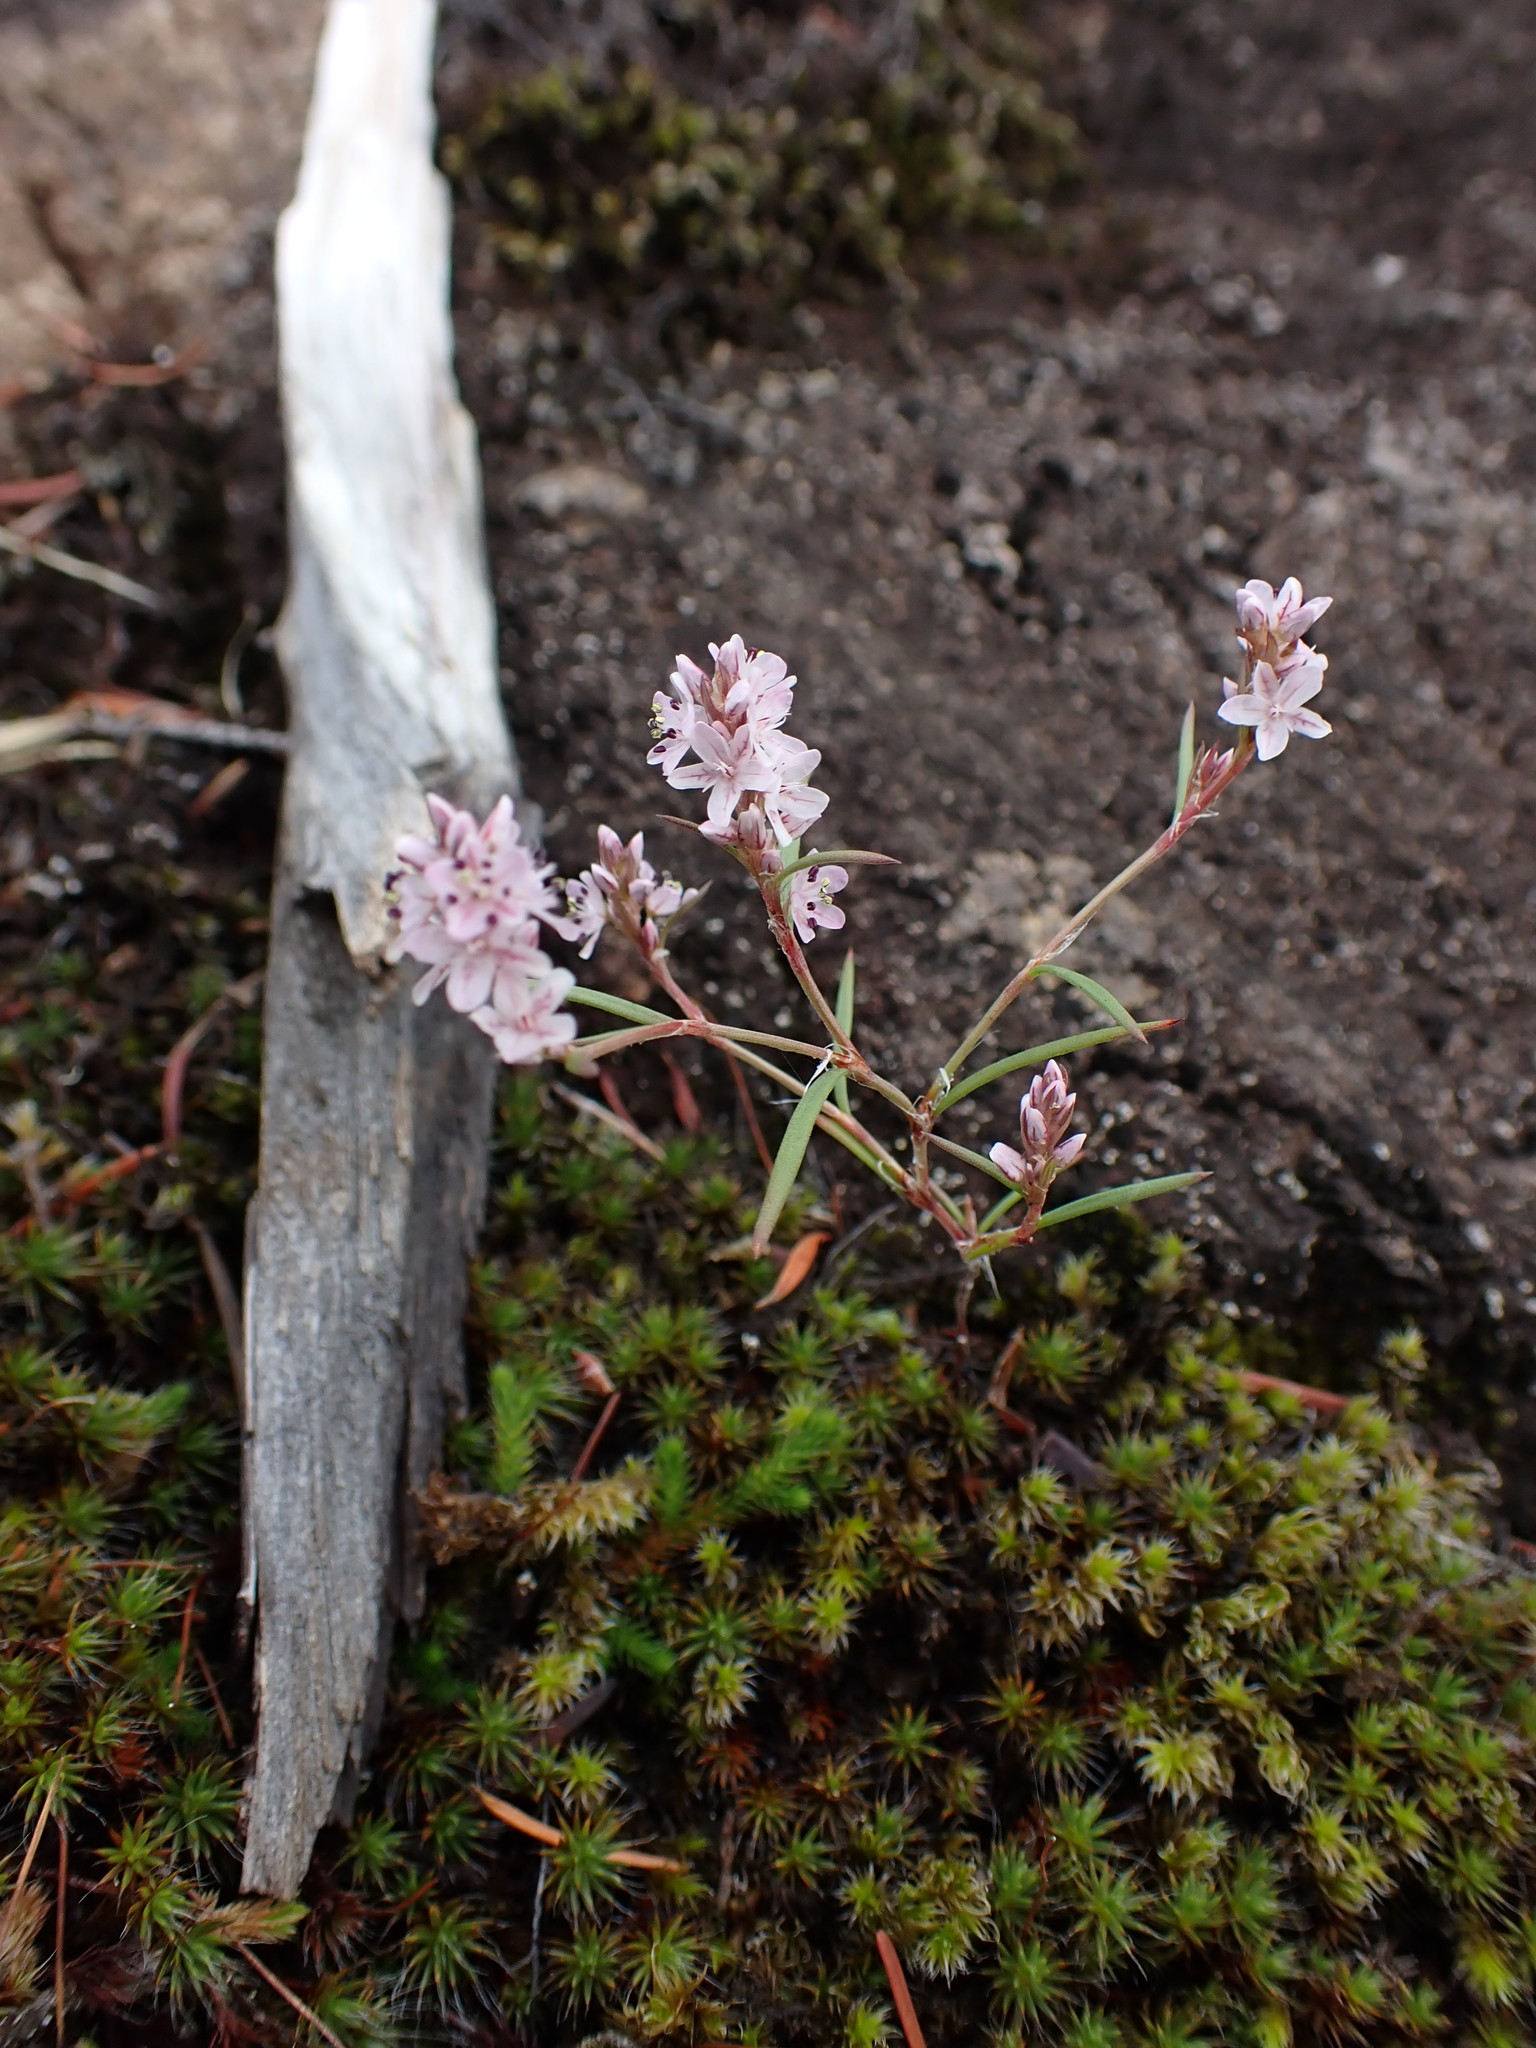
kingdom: Plantae
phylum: Tracheophyta
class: Magnoliopsida
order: Caryophyllales
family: Polygonaceae
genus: Polygonum
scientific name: Polygonum spergulariiforme
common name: Fall knotweed
